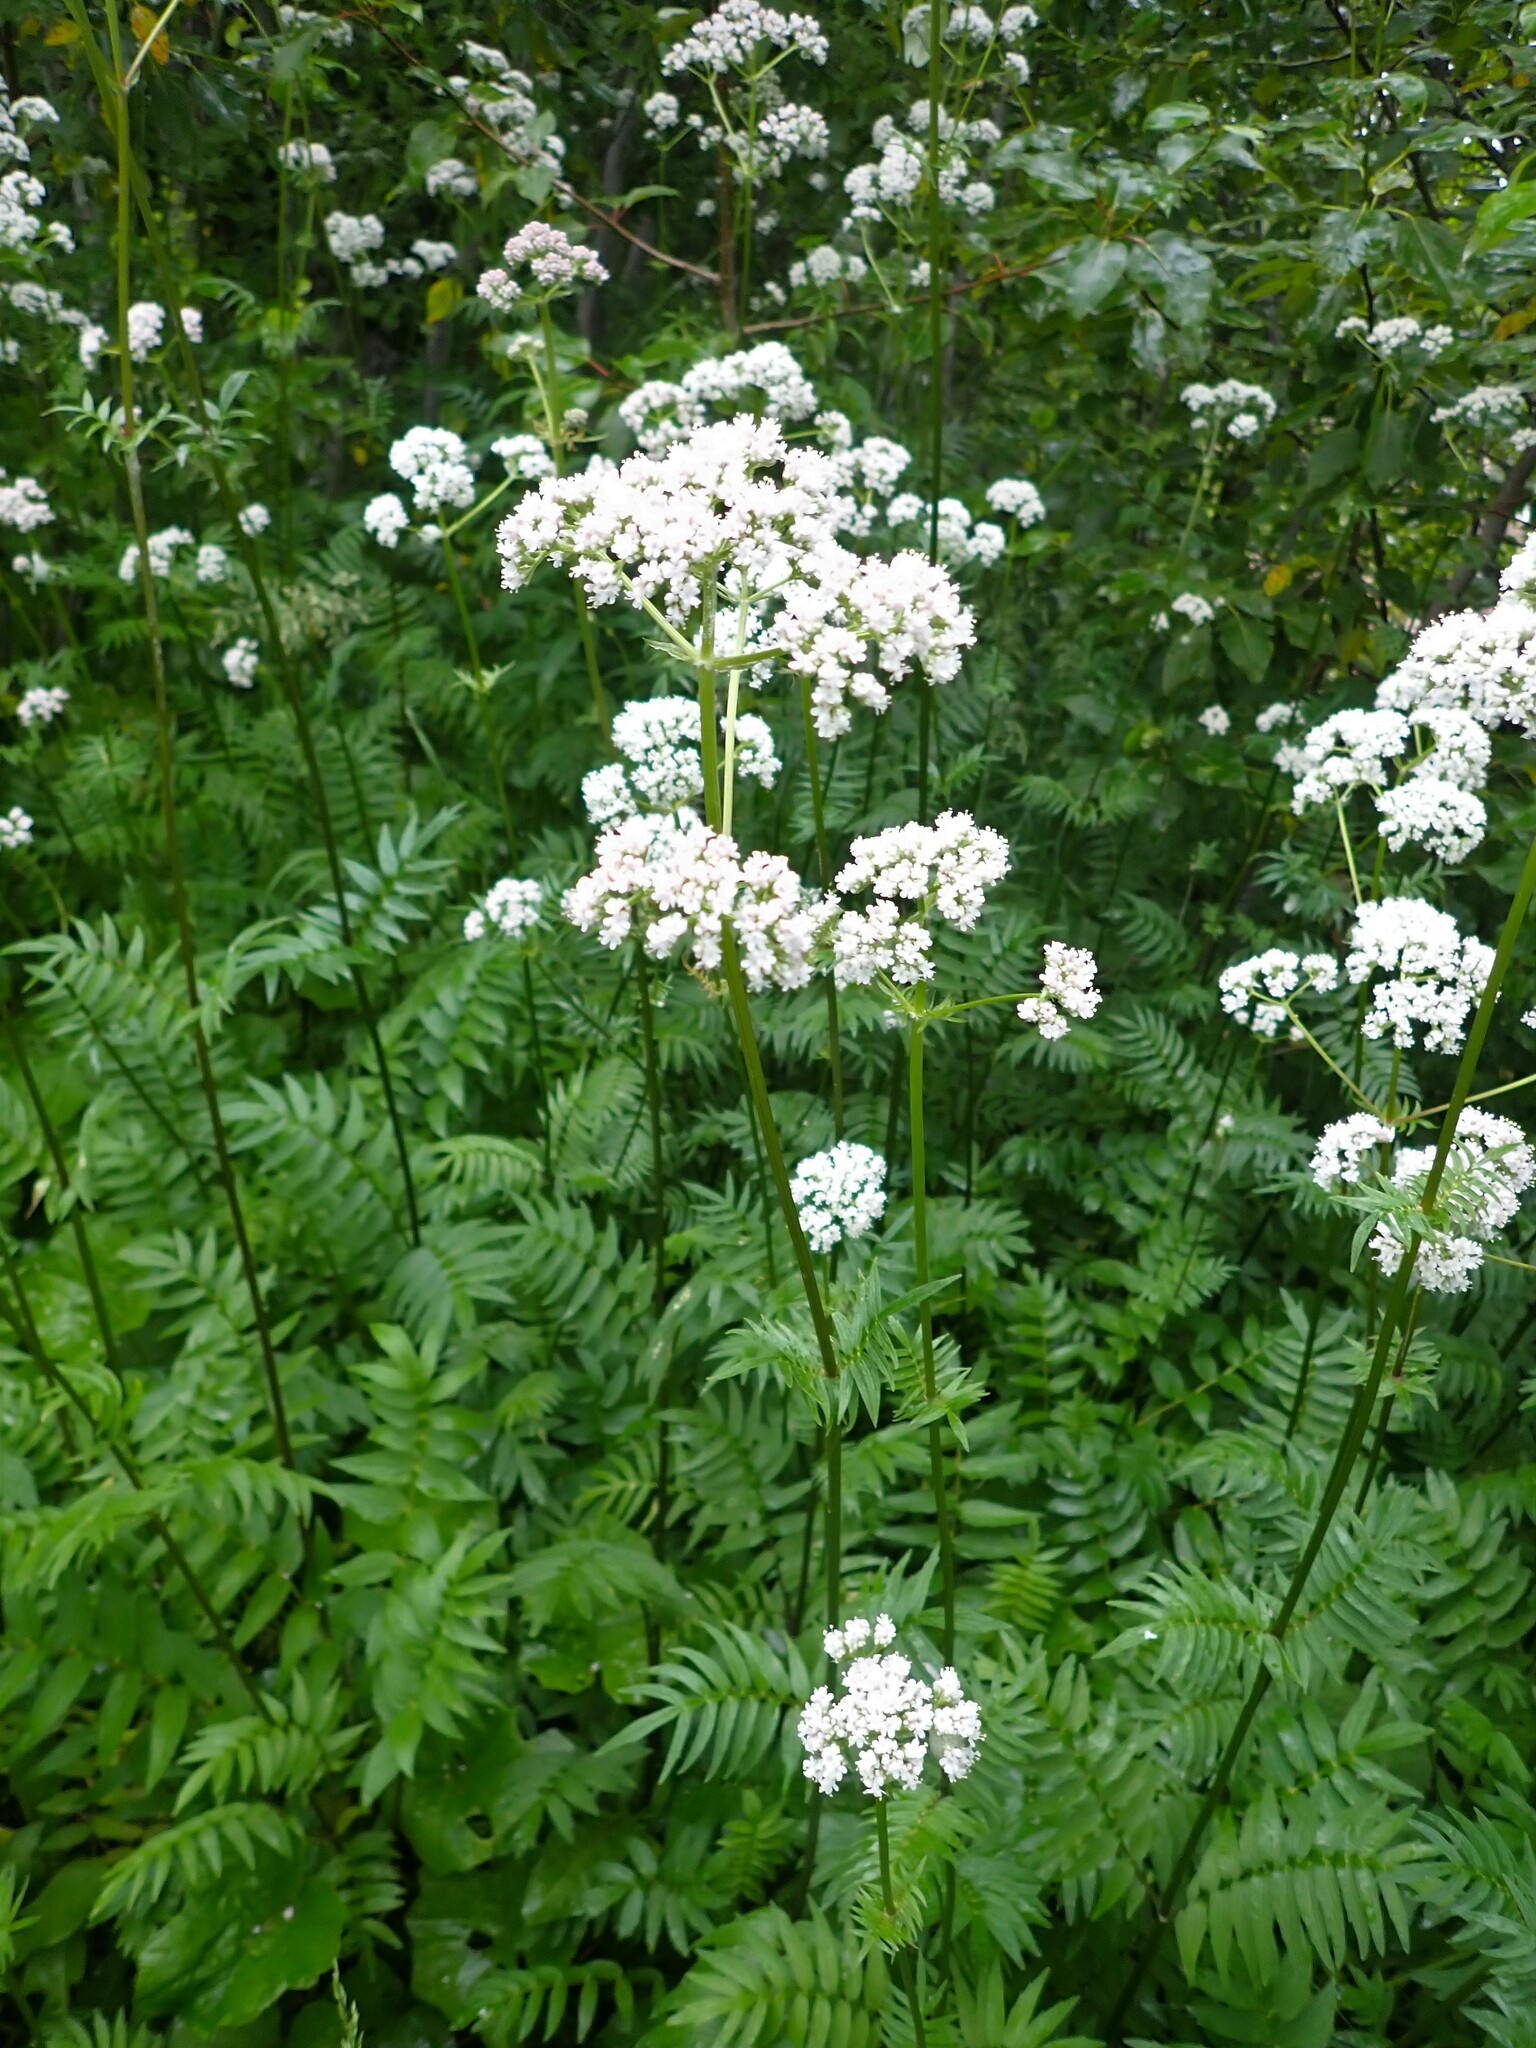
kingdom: Plantae
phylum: Tracheophyta
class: Magnoliopsida
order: Dipsacales
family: Caprifoliaceae
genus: Valeriana
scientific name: Valeriana officinalis
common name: Common valerian
